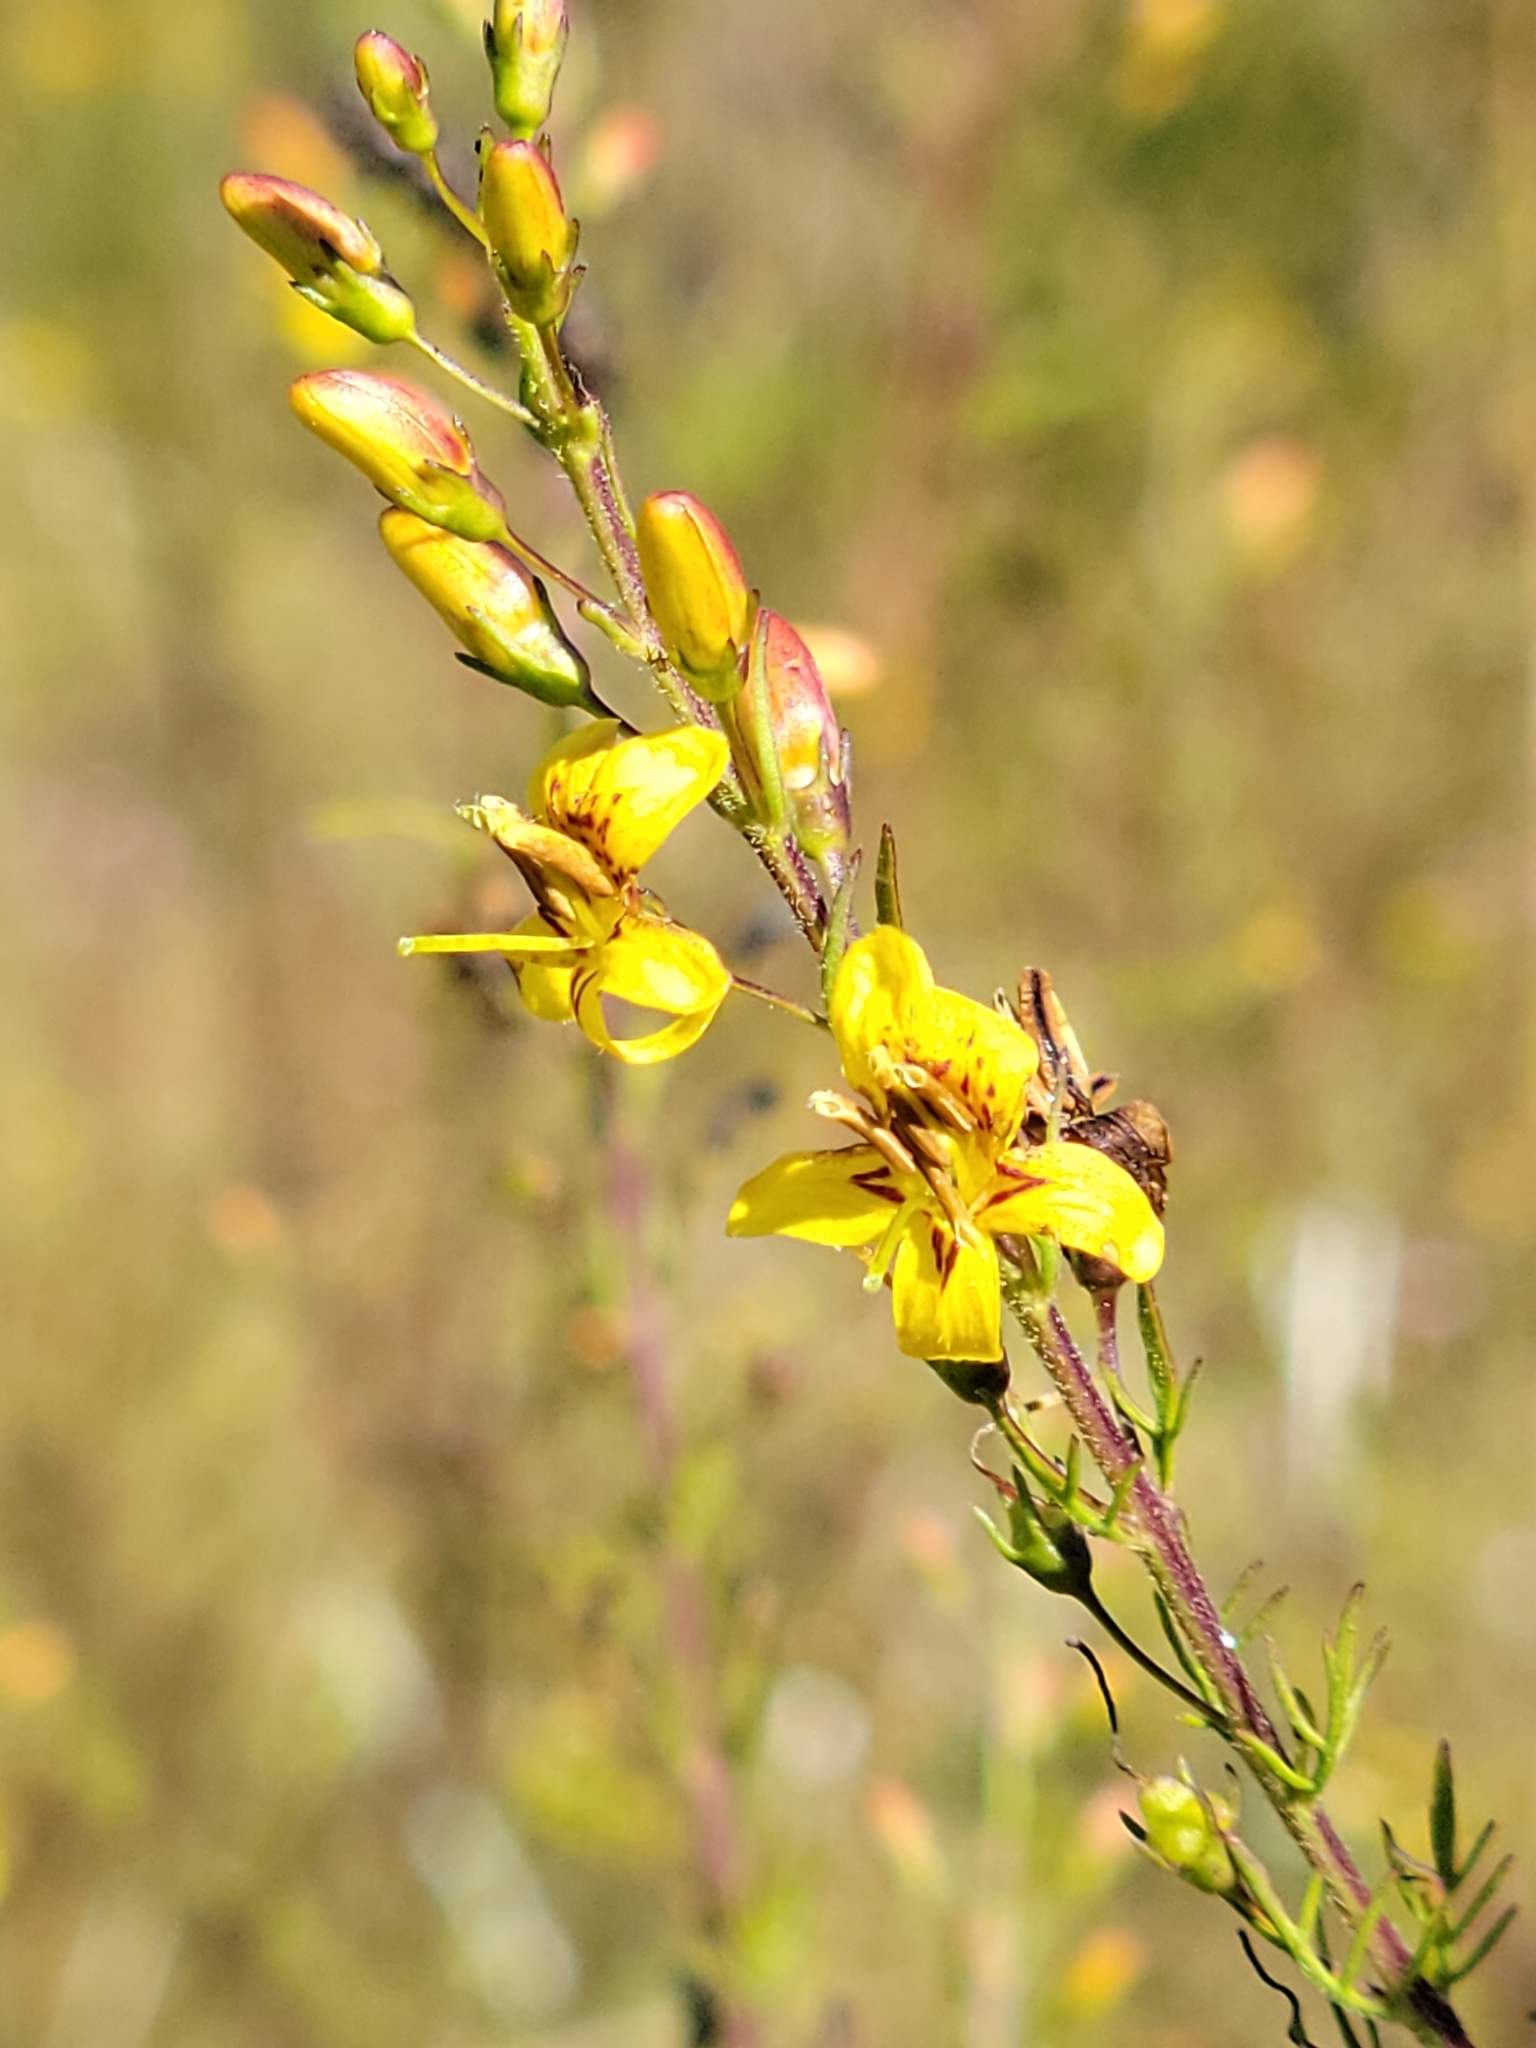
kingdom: Plantae
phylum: Tracheophyta
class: Magnoliopsida
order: Lamiales
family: Orobanchaceae
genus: Seymeria
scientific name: Seymeria cassioides
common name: Yaupon black-senna
